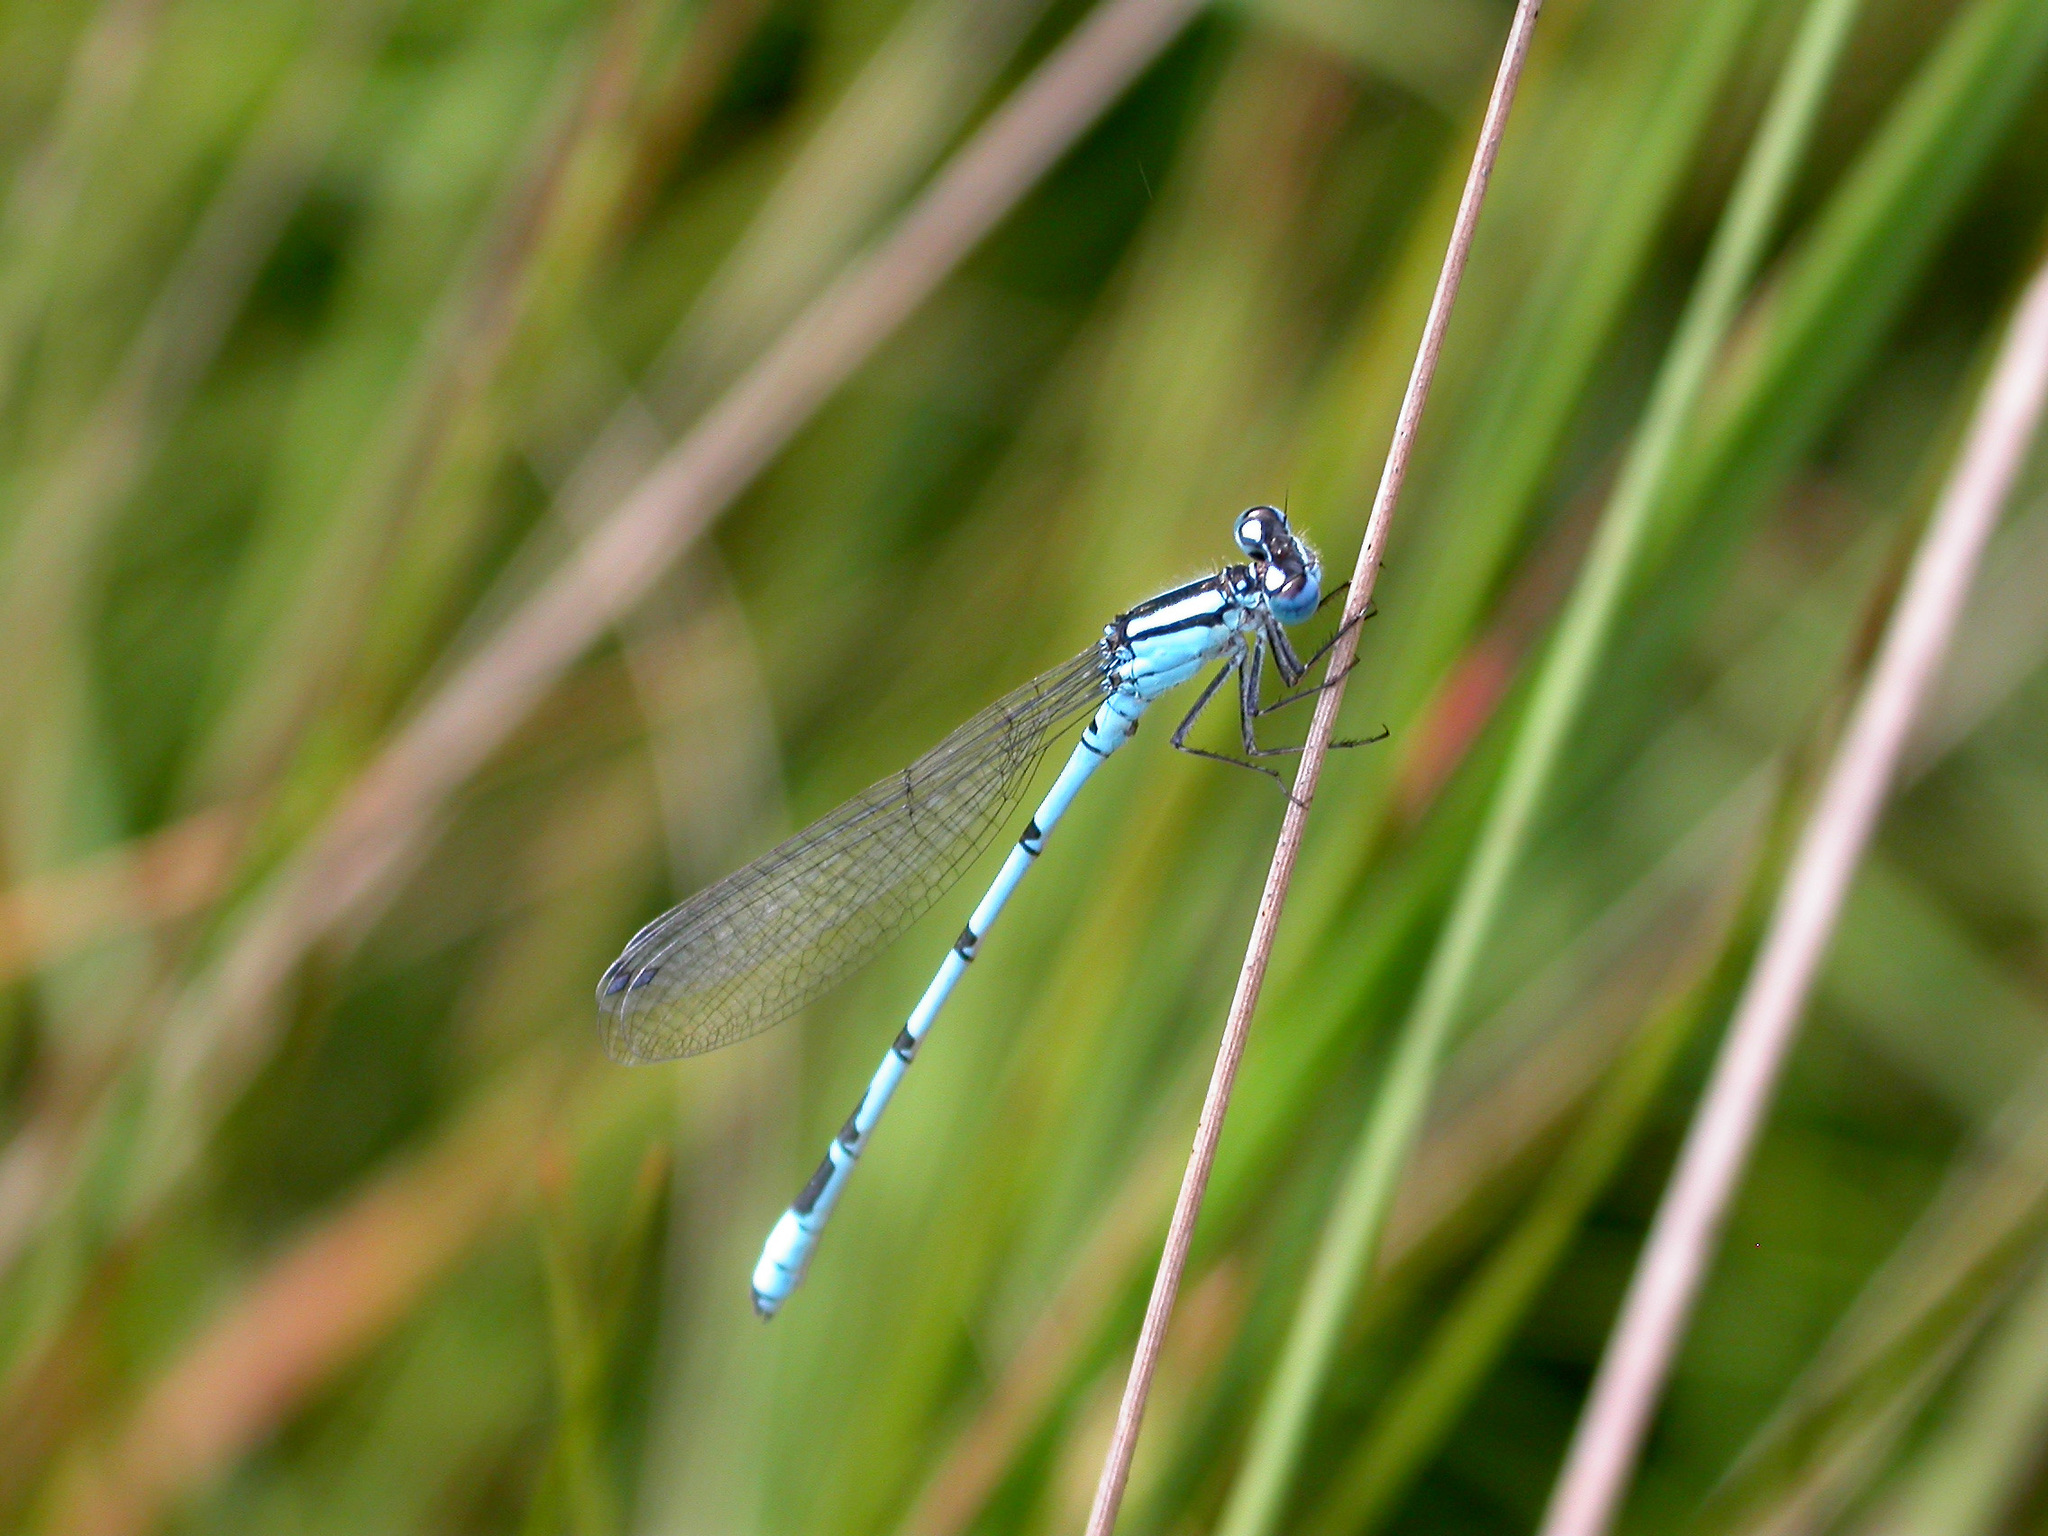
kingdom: Animalia
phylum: Arthropoda
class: Insecta
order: Odonata
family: Coenagrionidae
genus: Enallagma
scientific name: Enallagma cyathigerum
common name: Common blue damselfly
